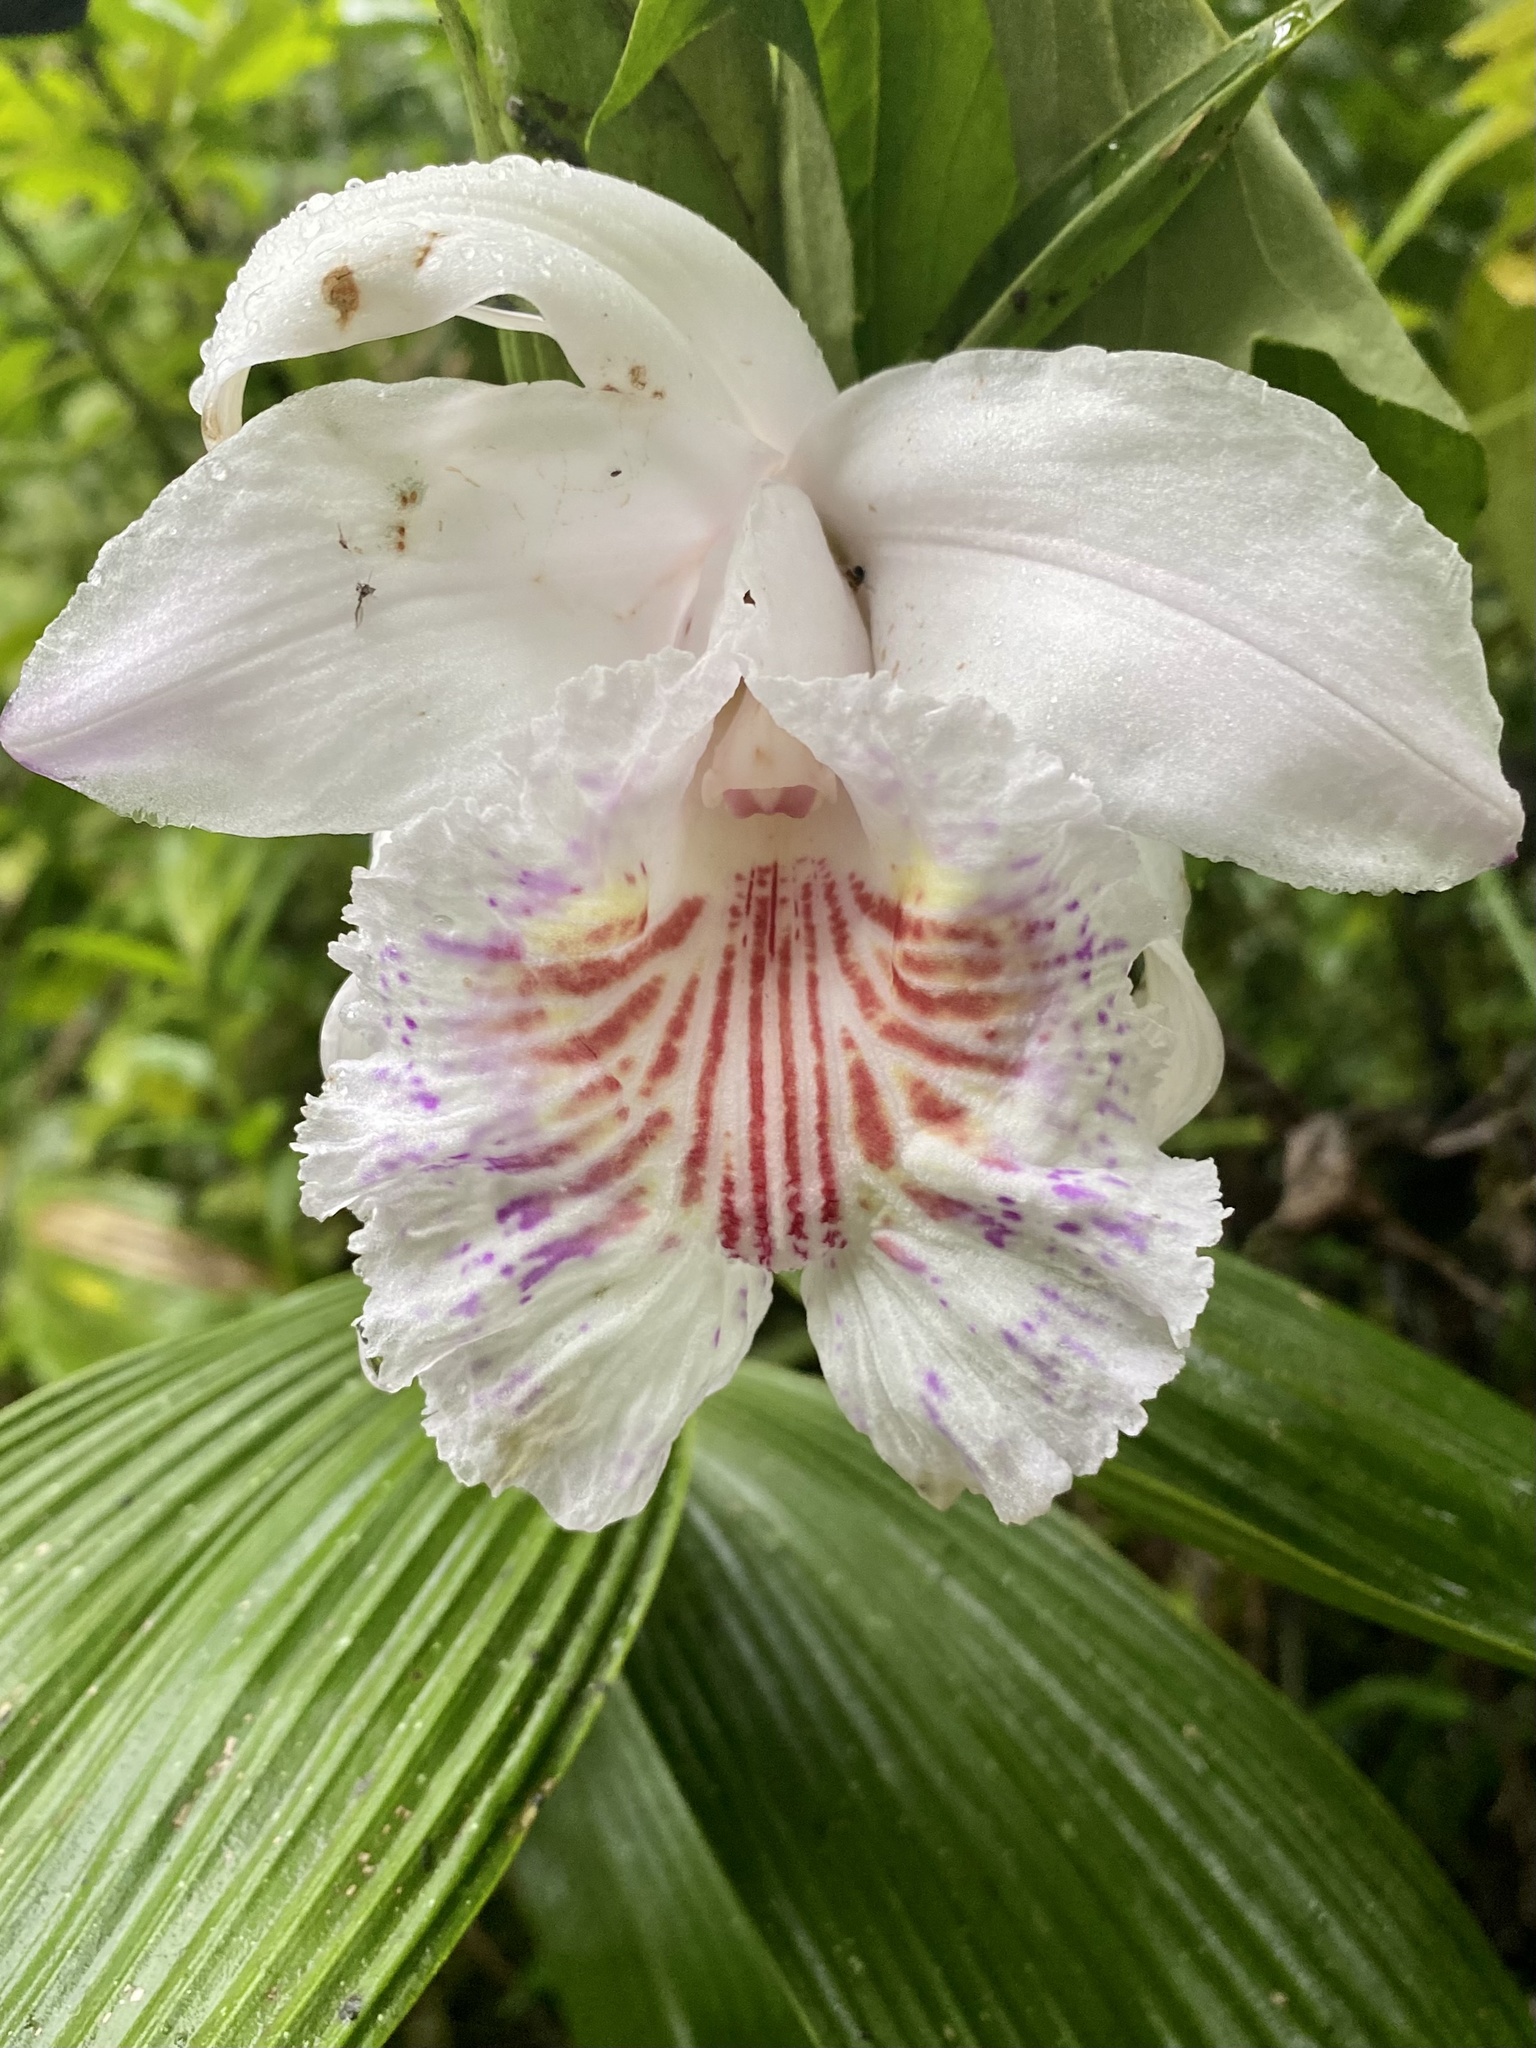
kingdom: Plantae
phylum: Tracheophyta
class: Liliopsida
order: Asparagales
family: Orchidaceae
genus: Sobralia
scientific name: Sobralia pulcherrima
